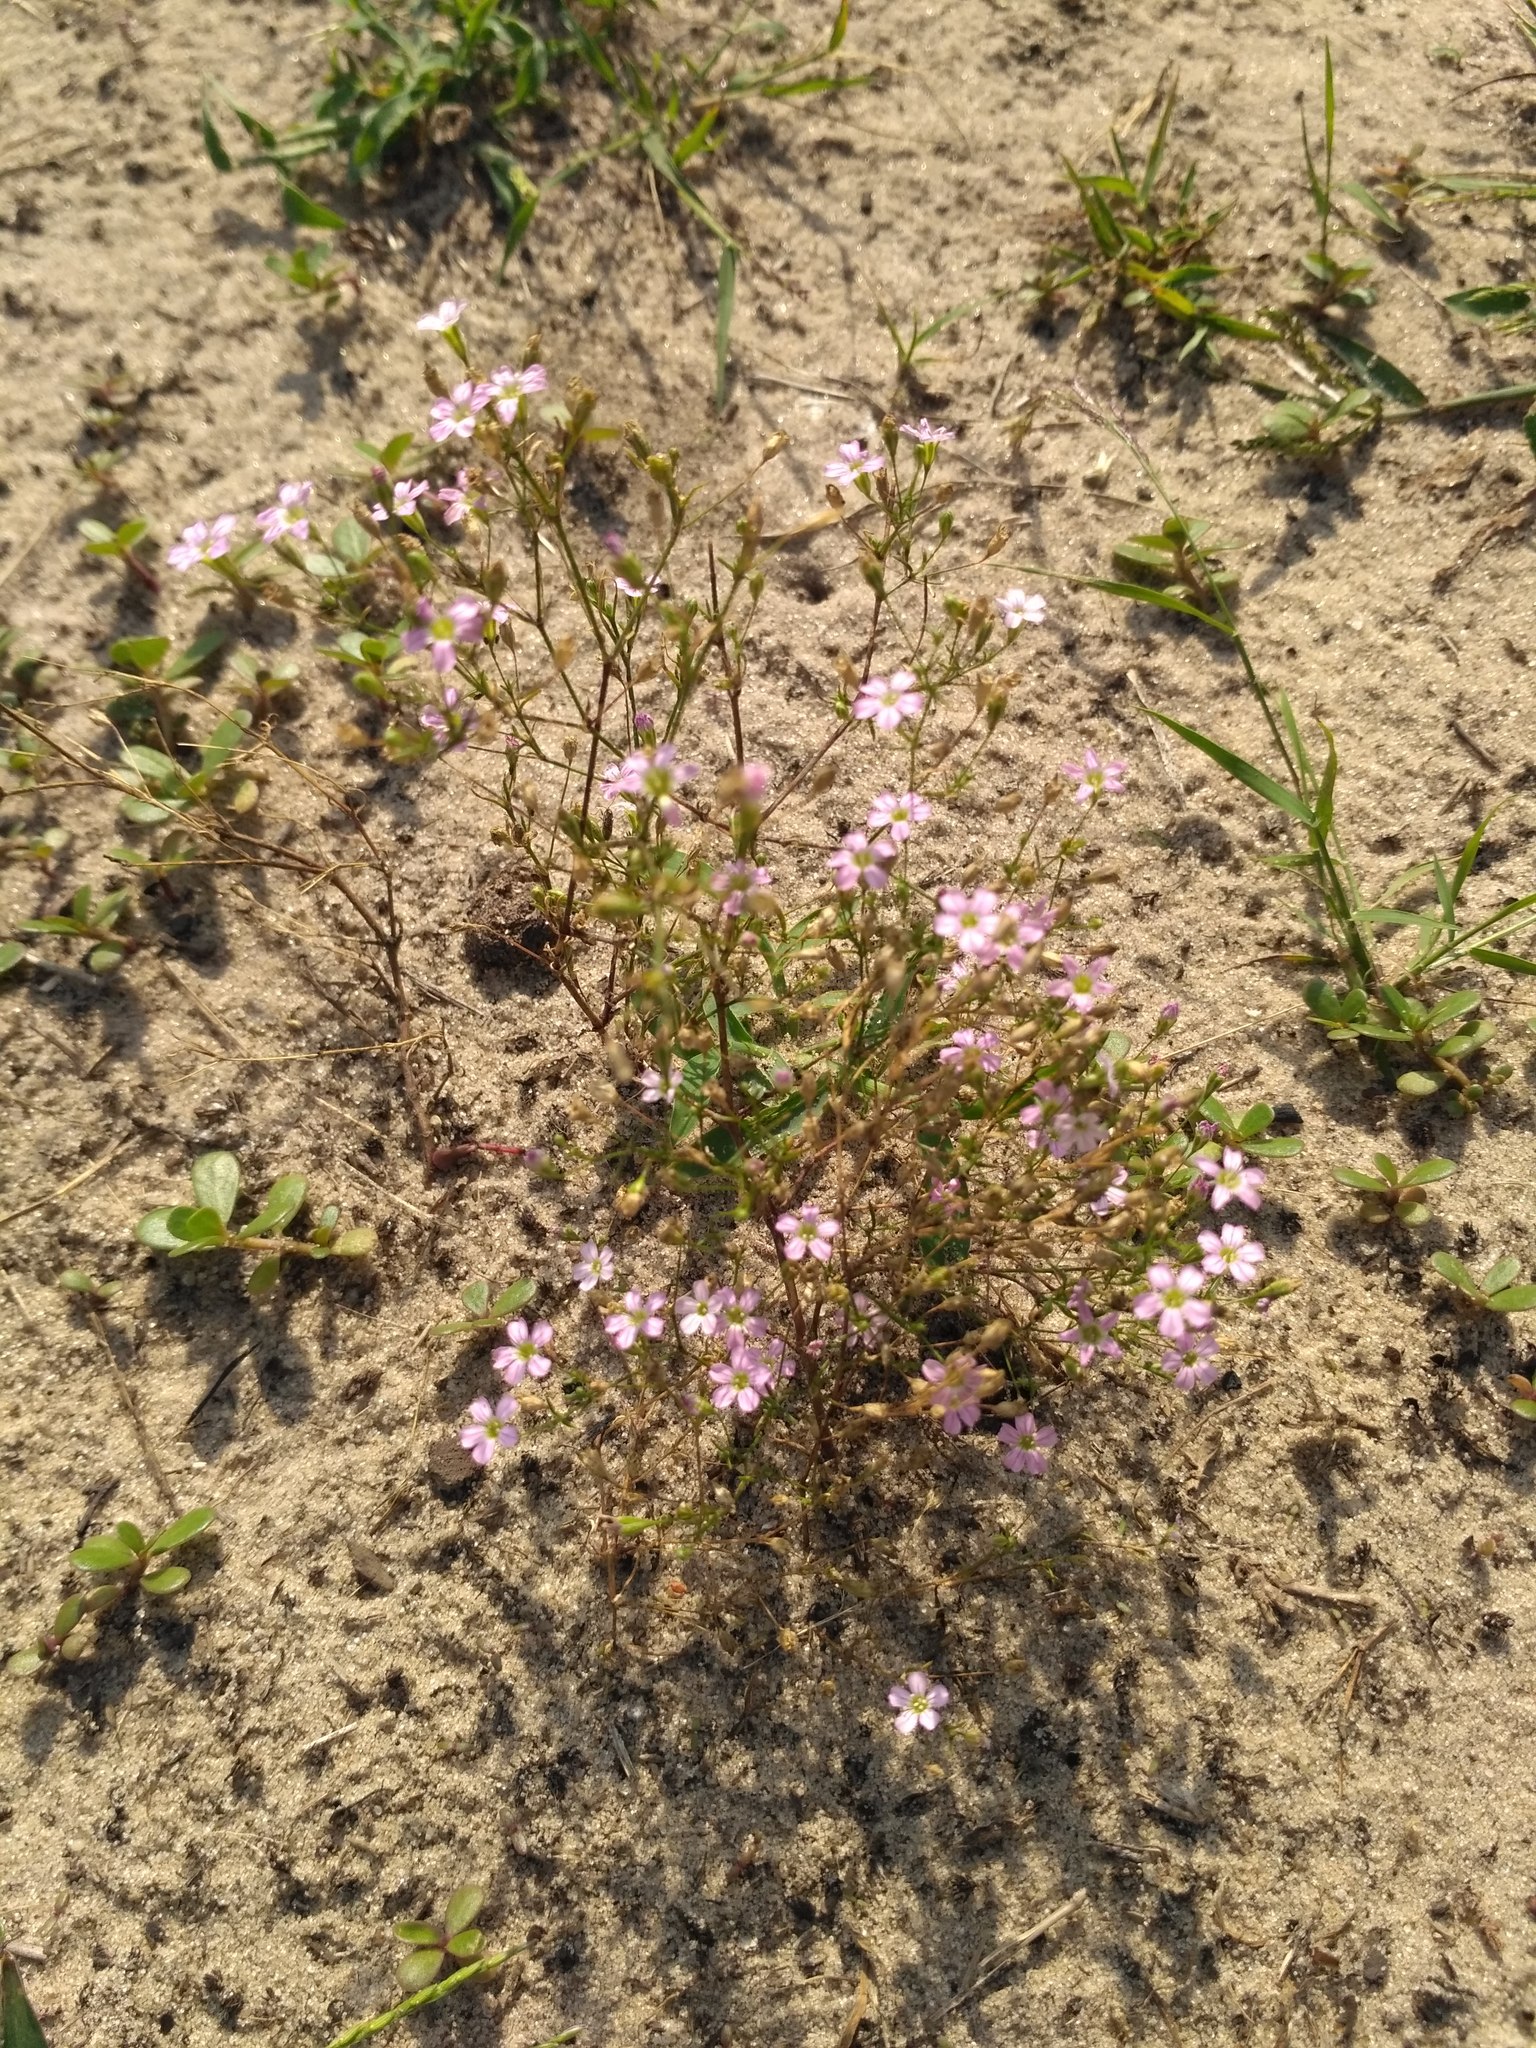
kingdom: Plantae
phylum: Tracheophyta
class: Magnoliopsida
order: Caryophyllales
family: Caryophyllaceae
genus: Psammophiliella
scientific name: Psammophiliella muralis
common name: Cushion baby's-breath
